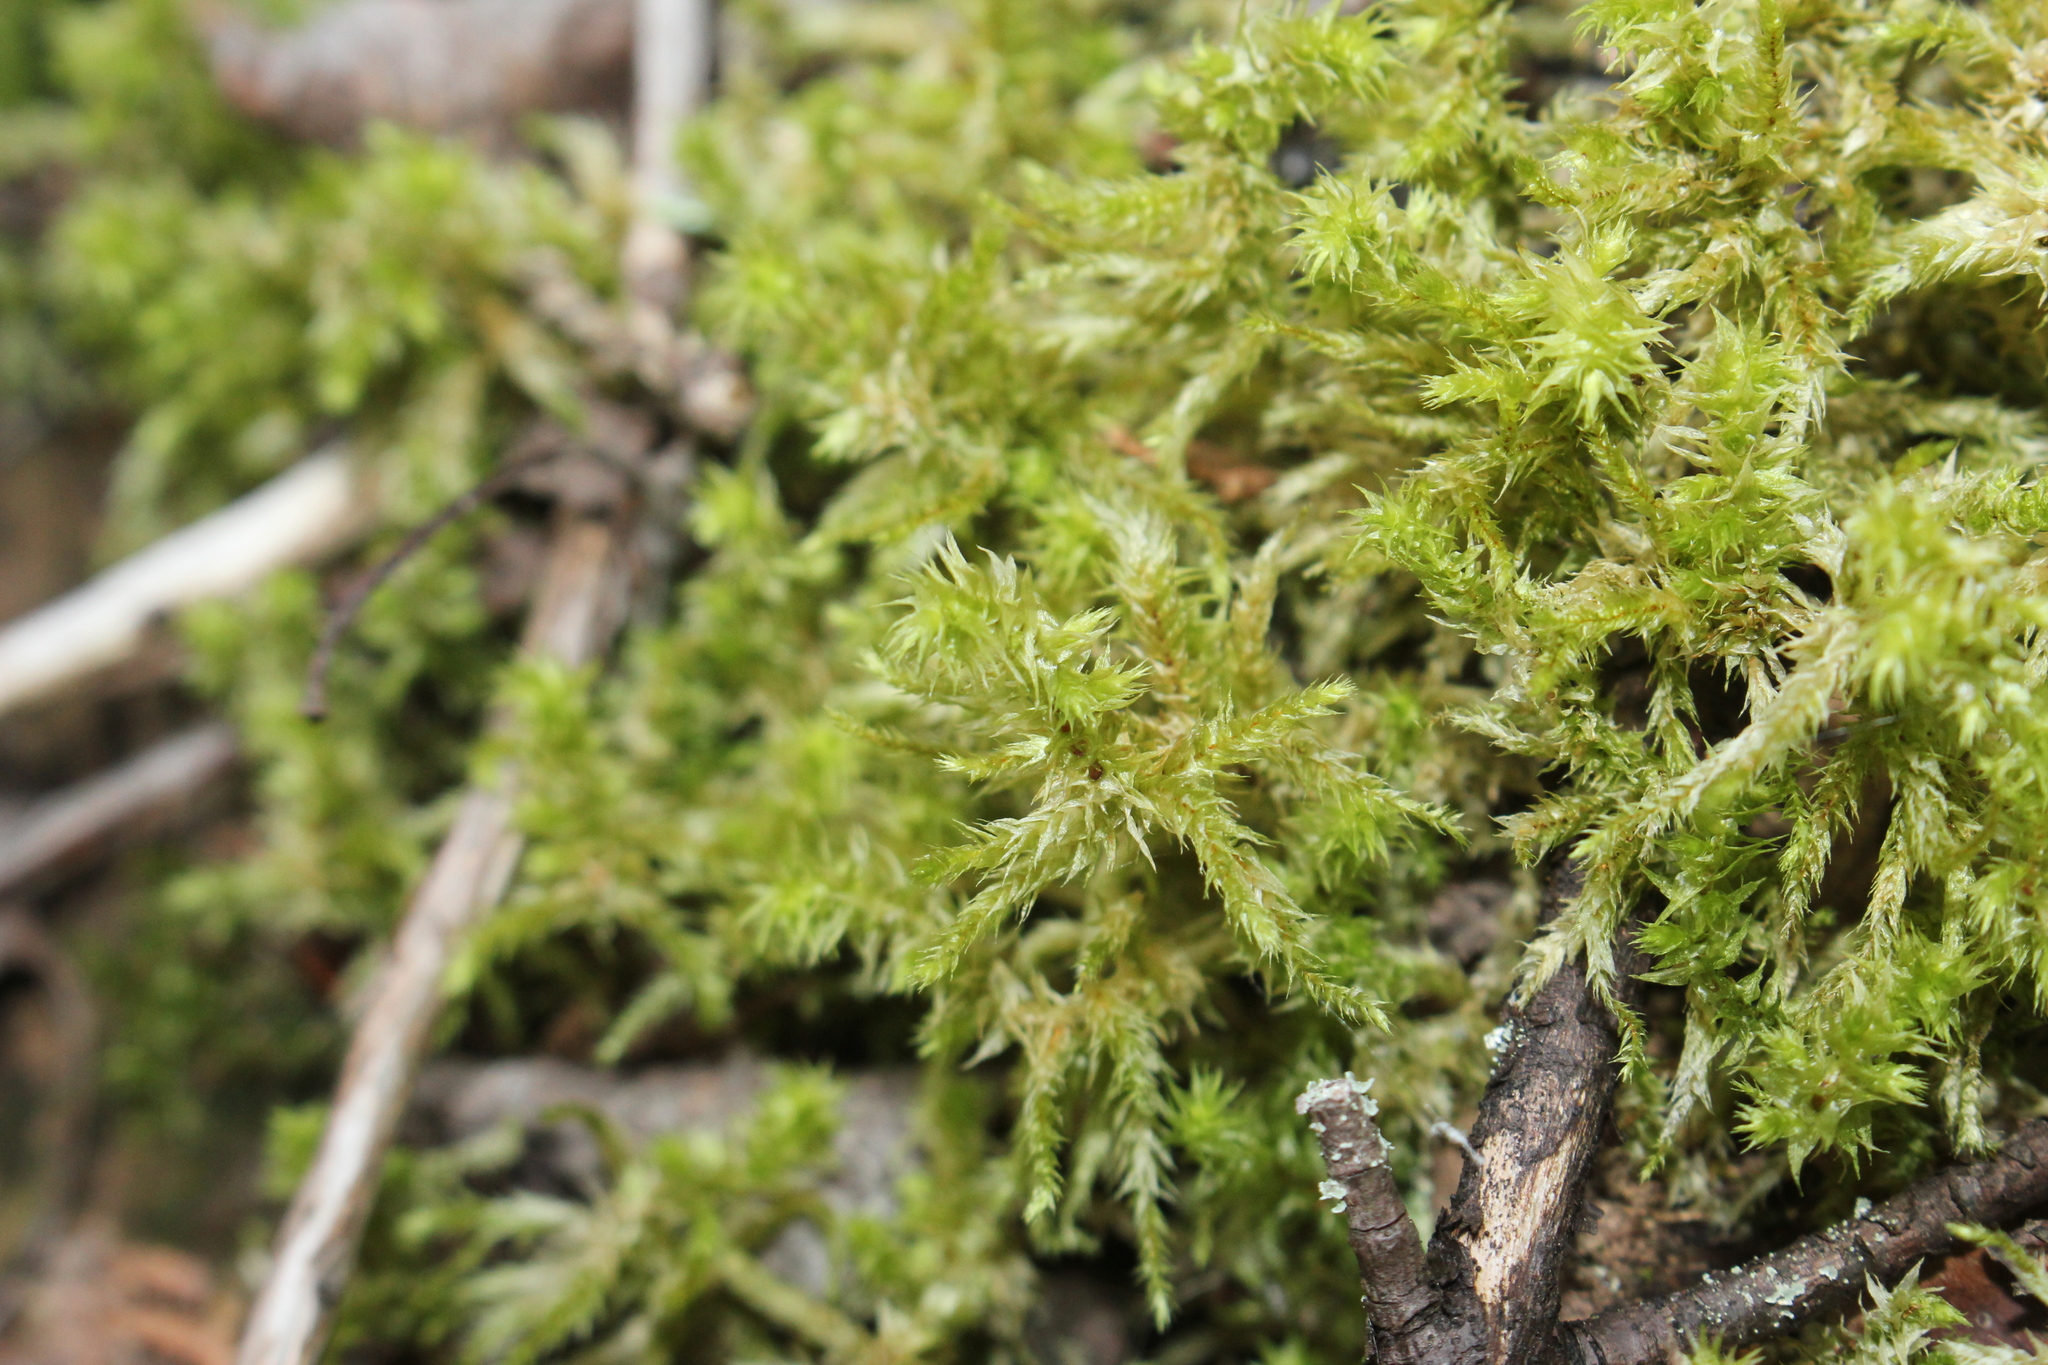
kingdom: Plantae
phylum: Bryophyta
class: Bryopsida
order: Hypnales
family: Hylocomiaceae
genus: Hylocomiadelphus
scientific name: Hylocomiadelphus triquetrus
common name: Rough goose neck moss
